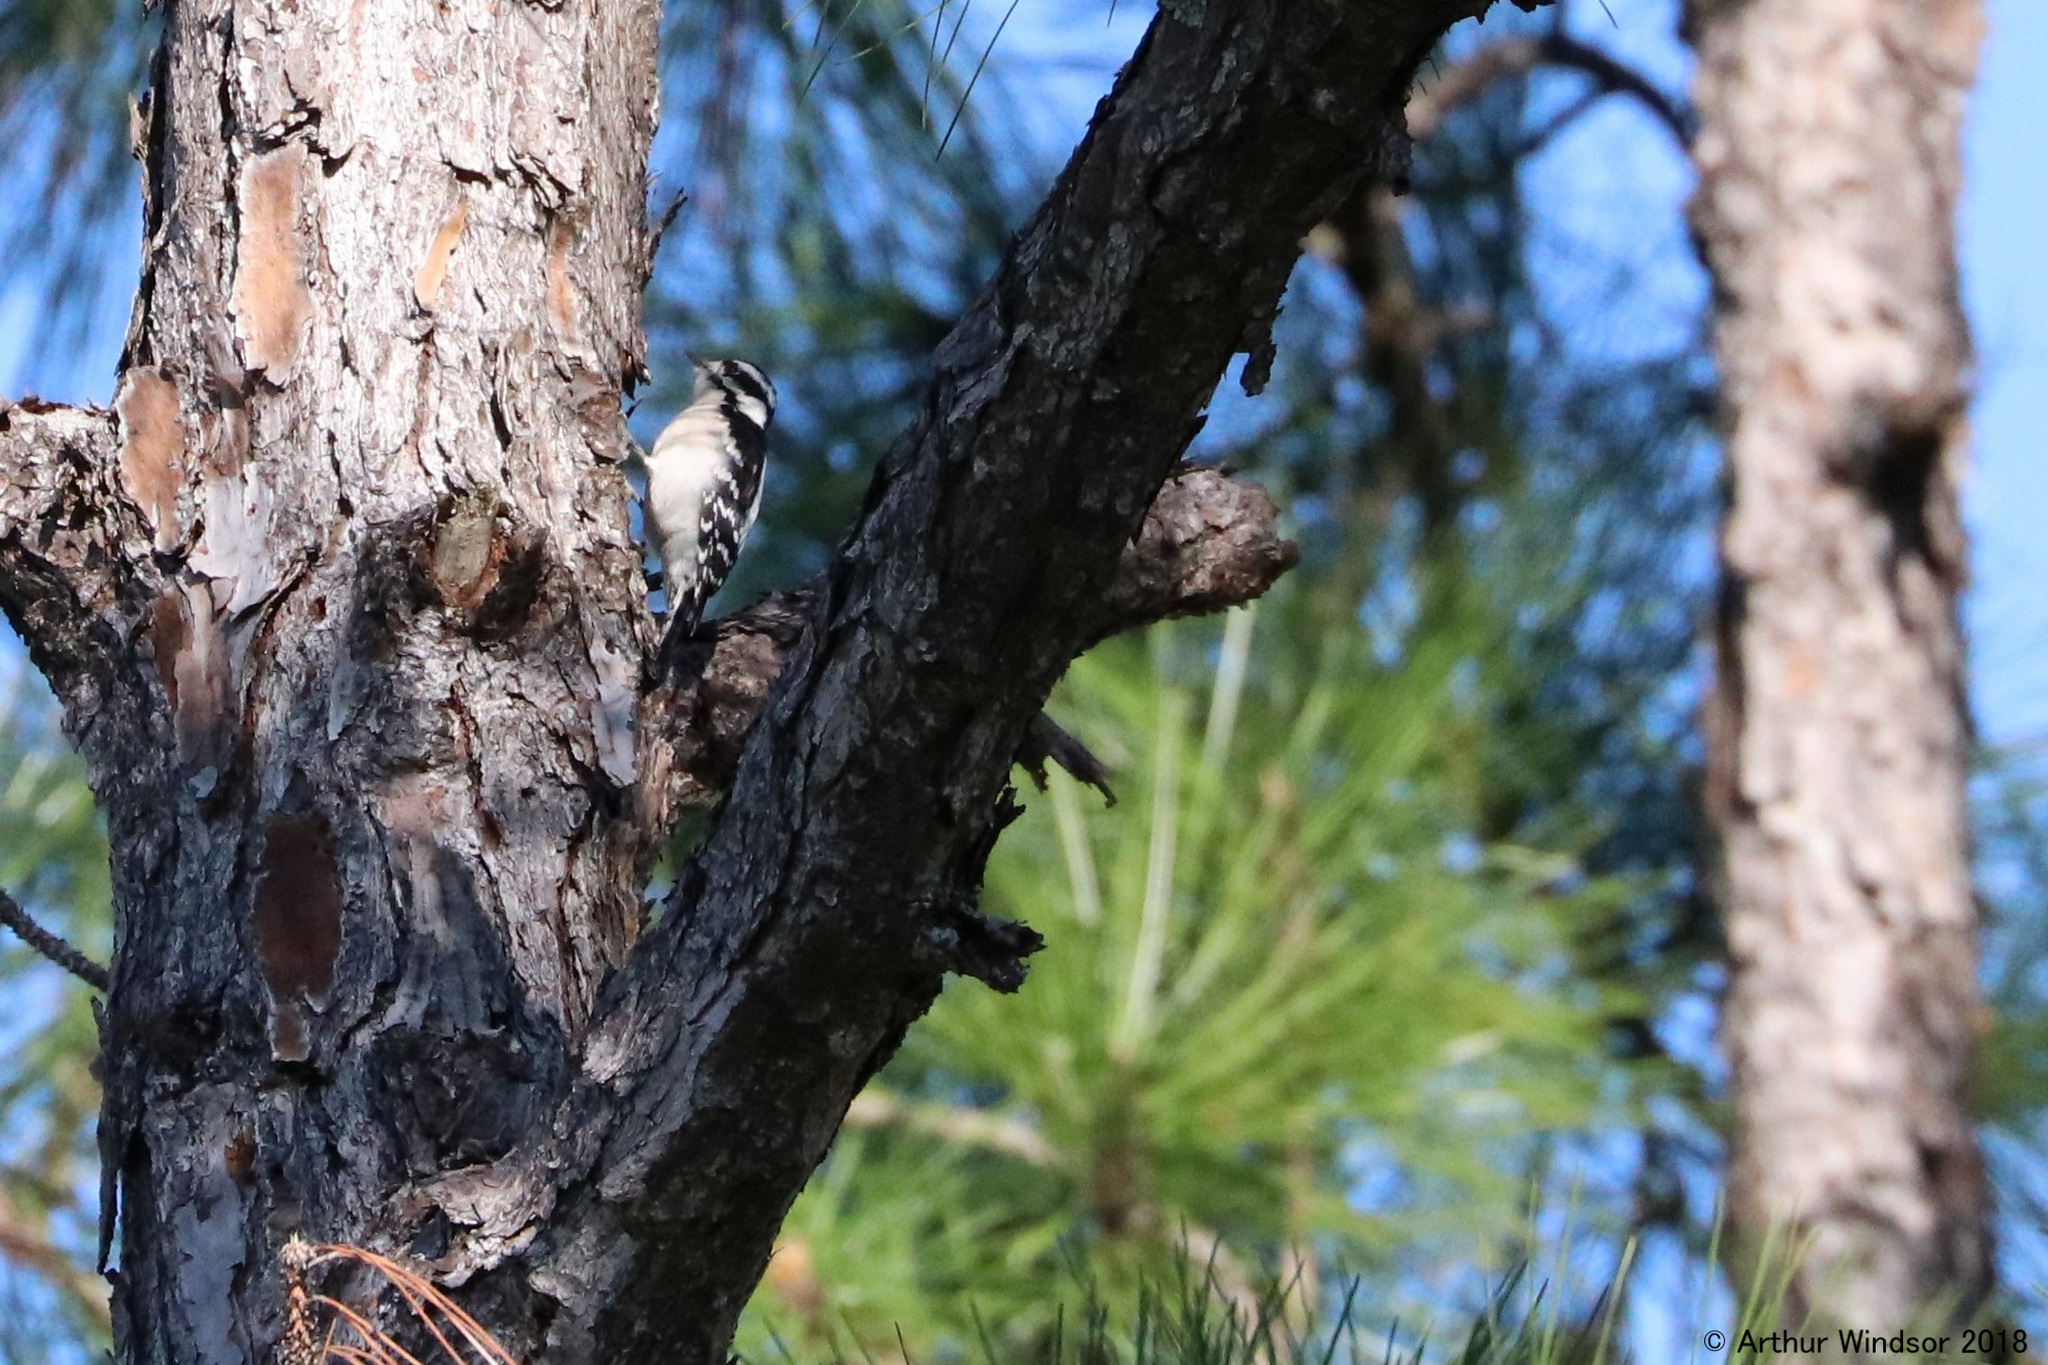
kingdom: Animalia
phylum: Chordata
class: Aves
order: Piciformes
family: Picidae
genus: Dryobates
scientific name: Dryobates pubescens
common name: Downy woodpecker
